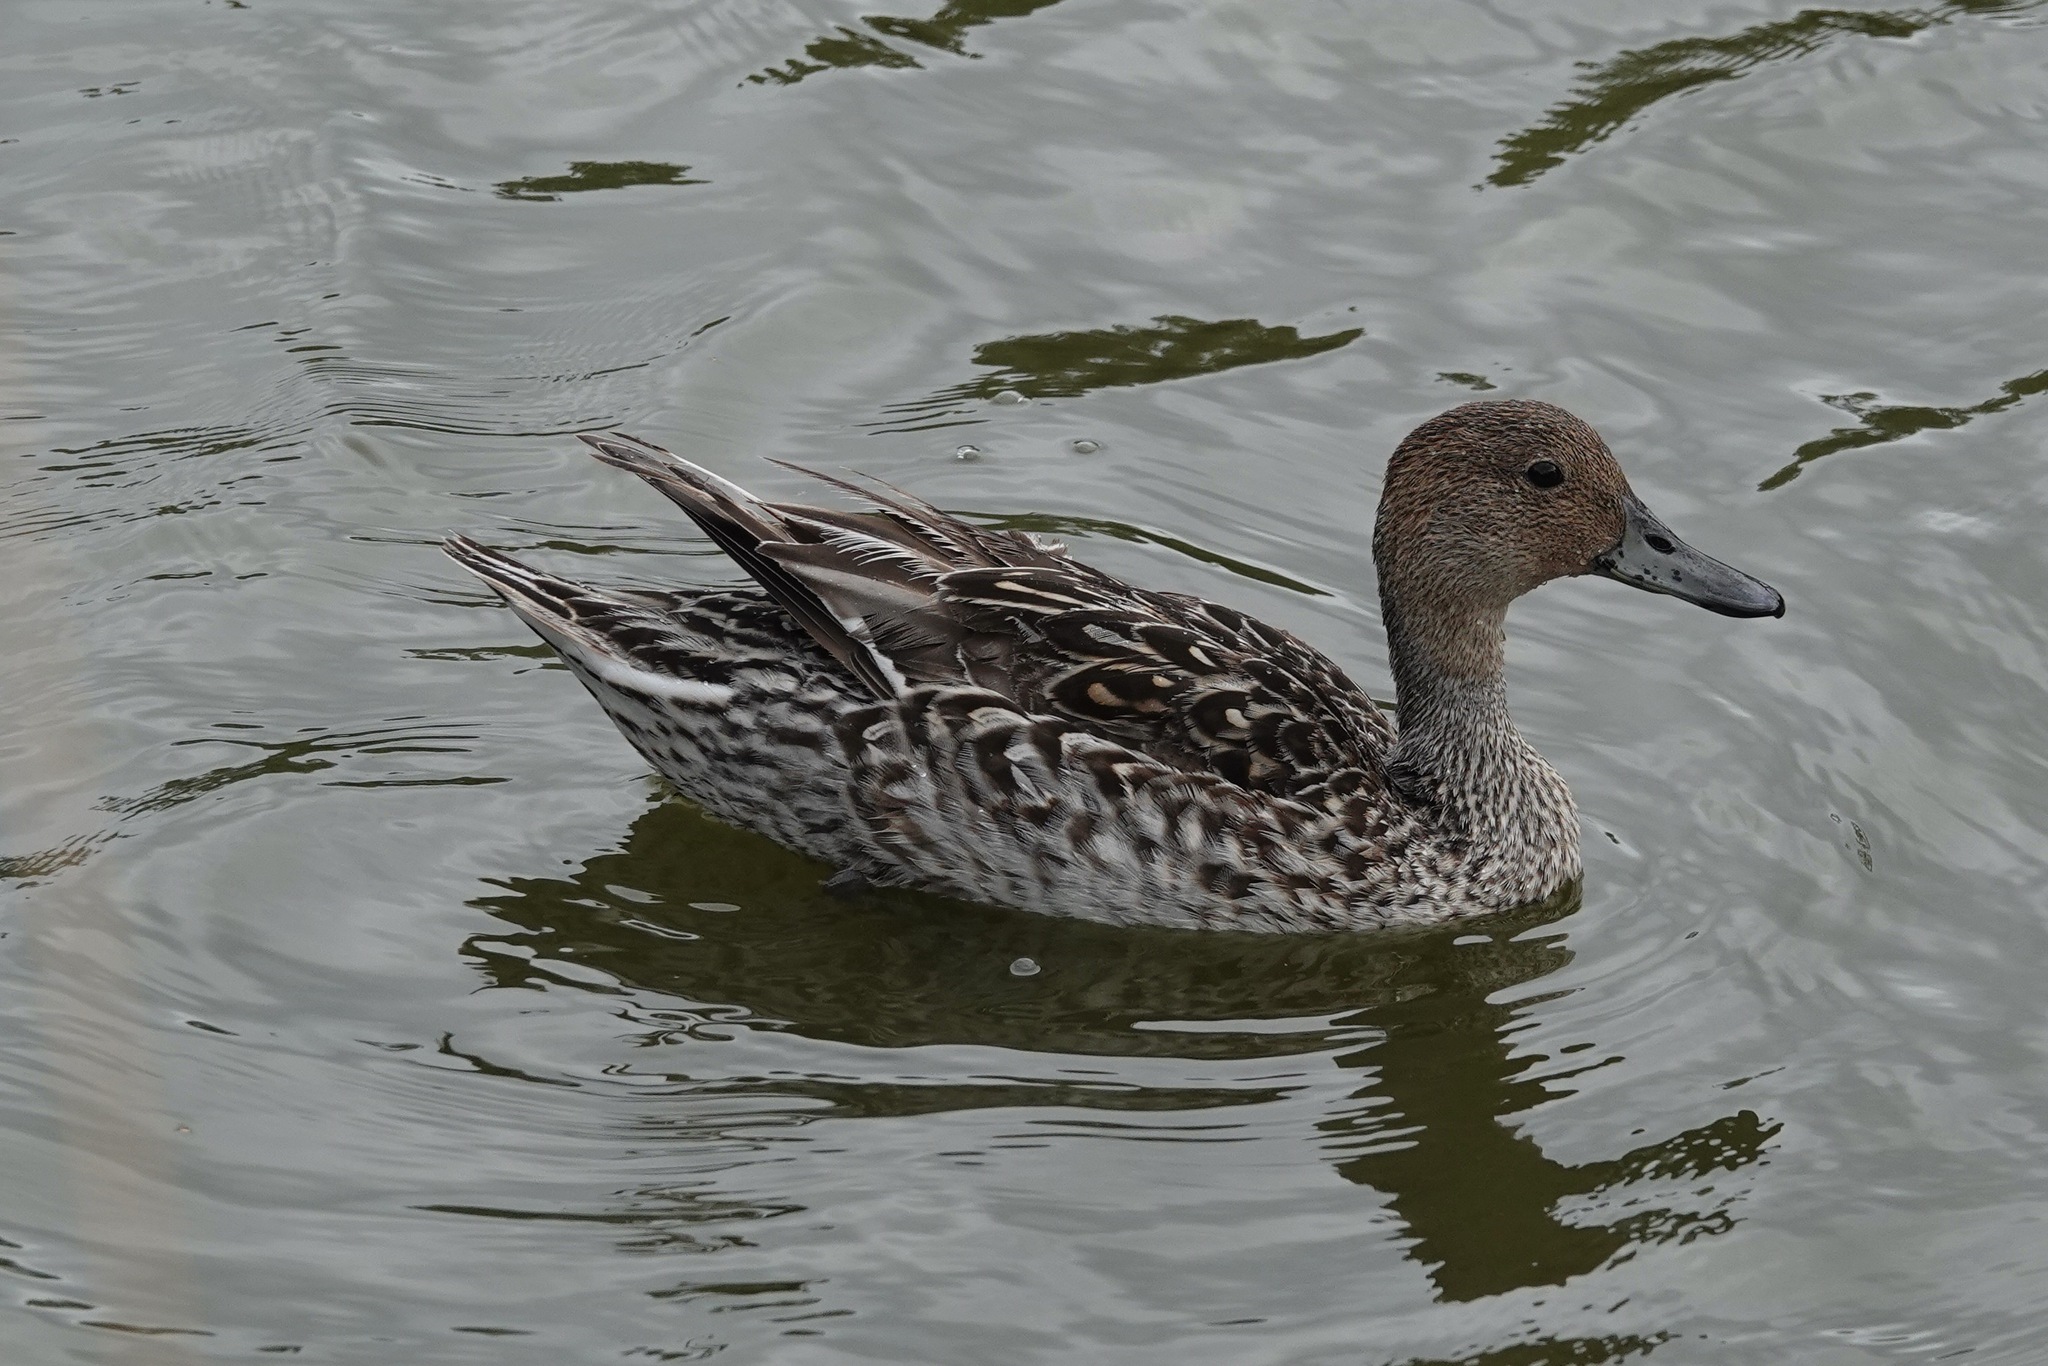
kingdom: Animalia
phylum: Chordata
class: Aves
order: Anseriformes
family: Anatidae
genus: Anas
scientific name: Anas acuta
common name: Northern pintail
